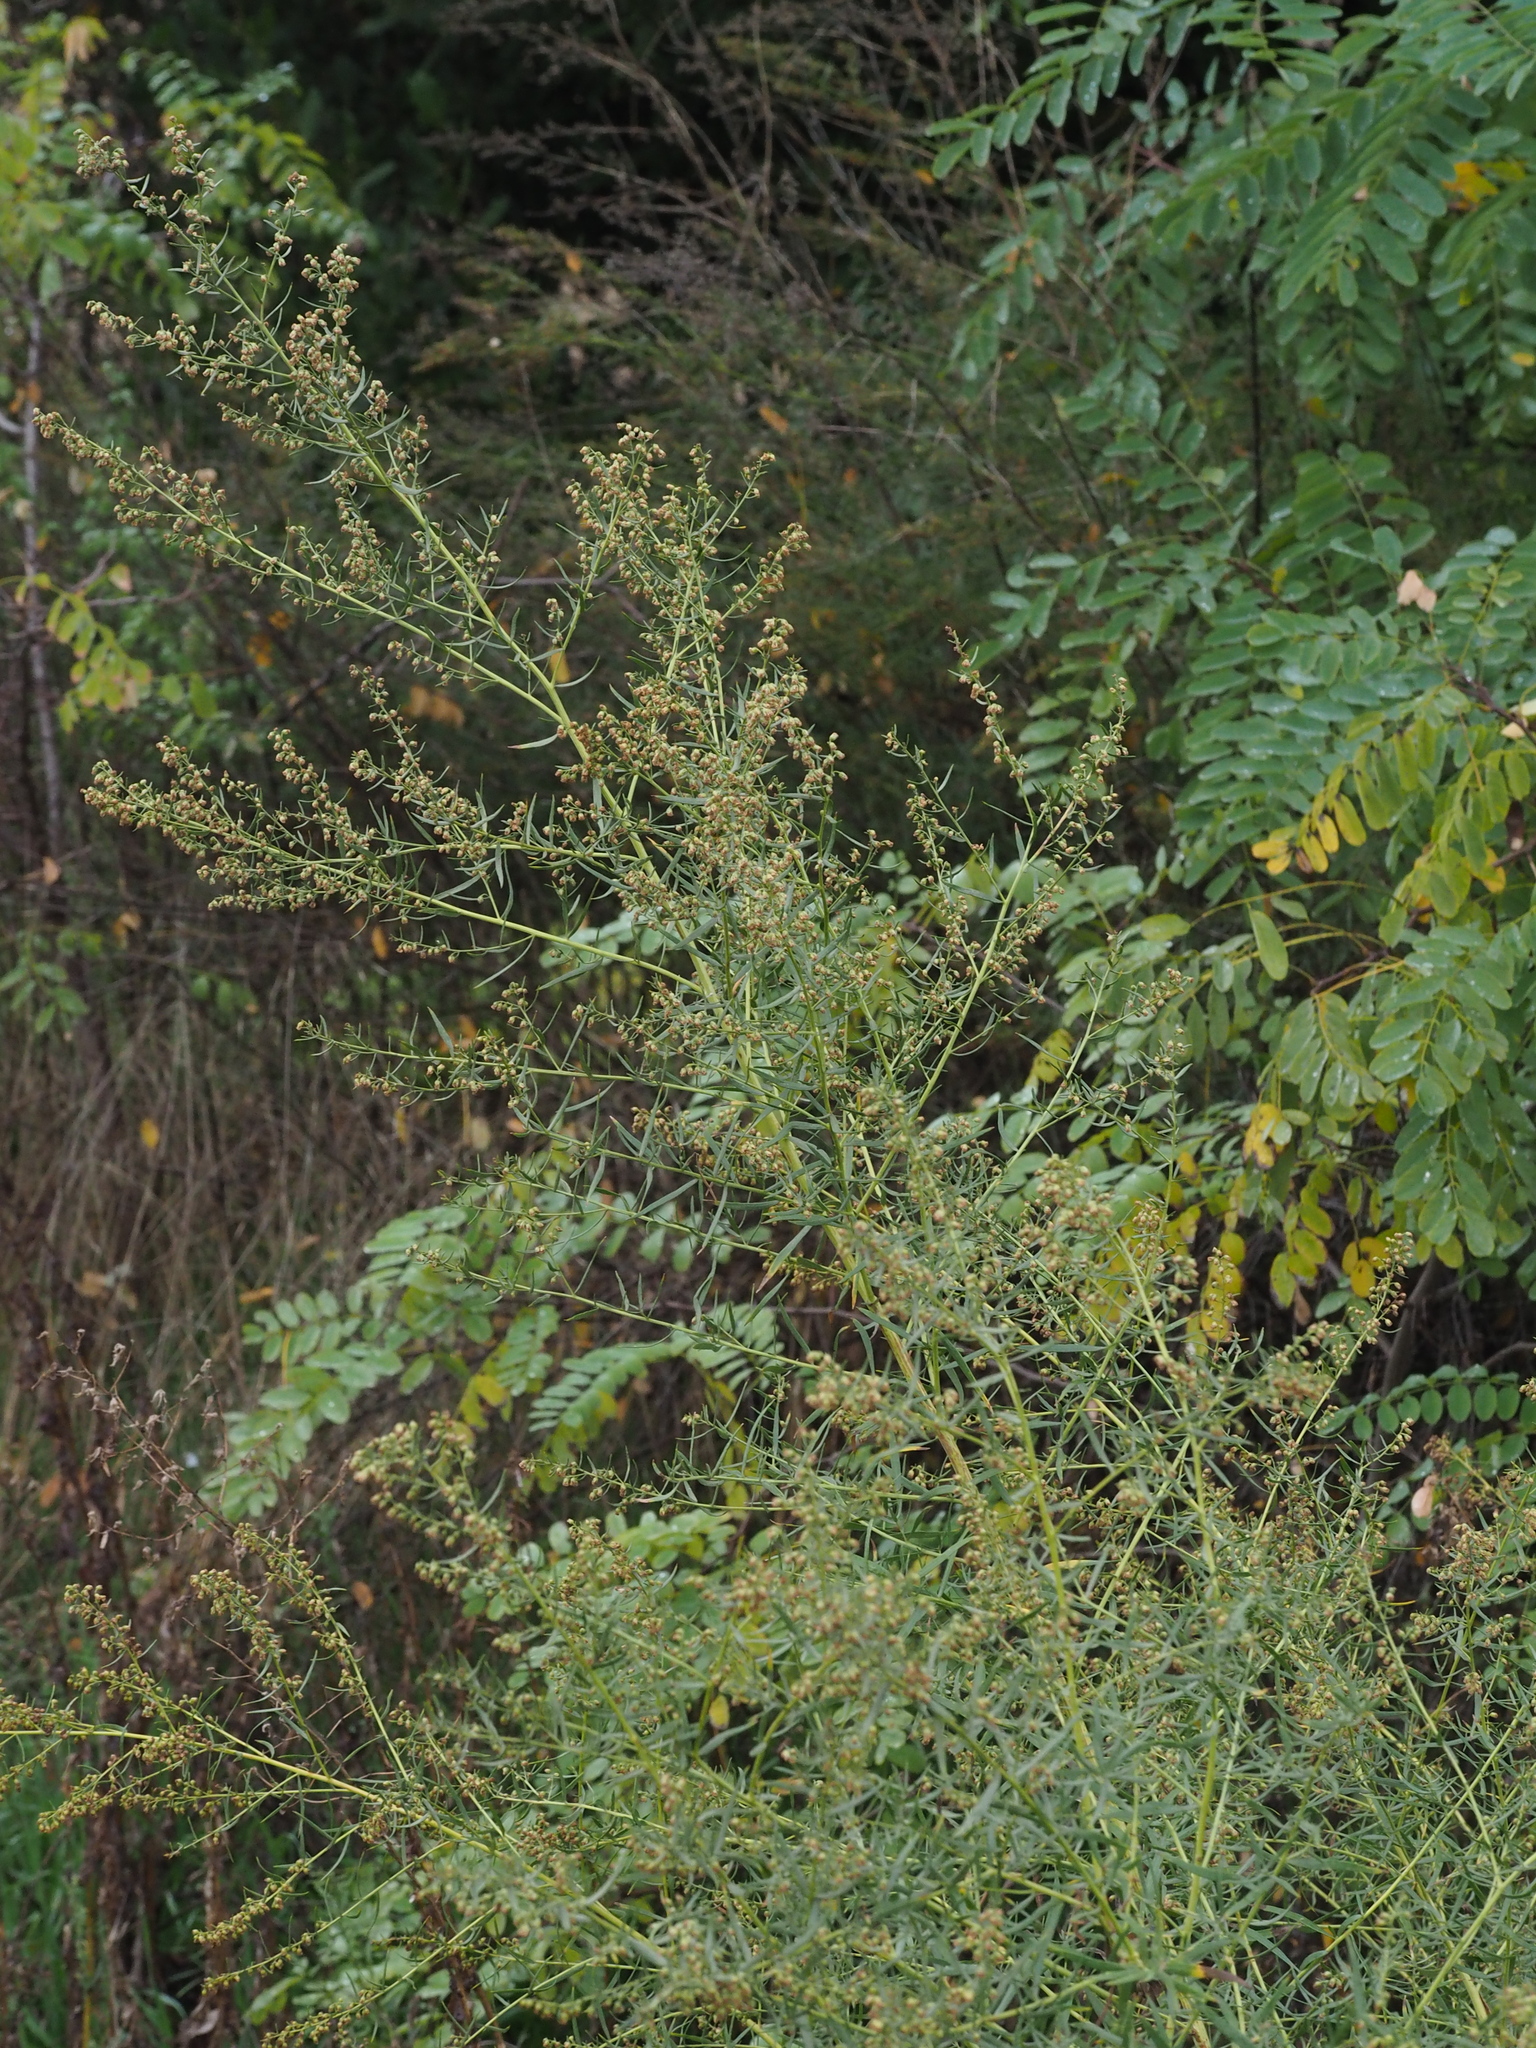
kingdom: Plantae
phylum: Tracheophyta
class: Magnoliopsida
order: Asterales
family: Asteraceae
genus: Artemisia
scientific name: Artemisia dracunculus
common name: Tarragon
